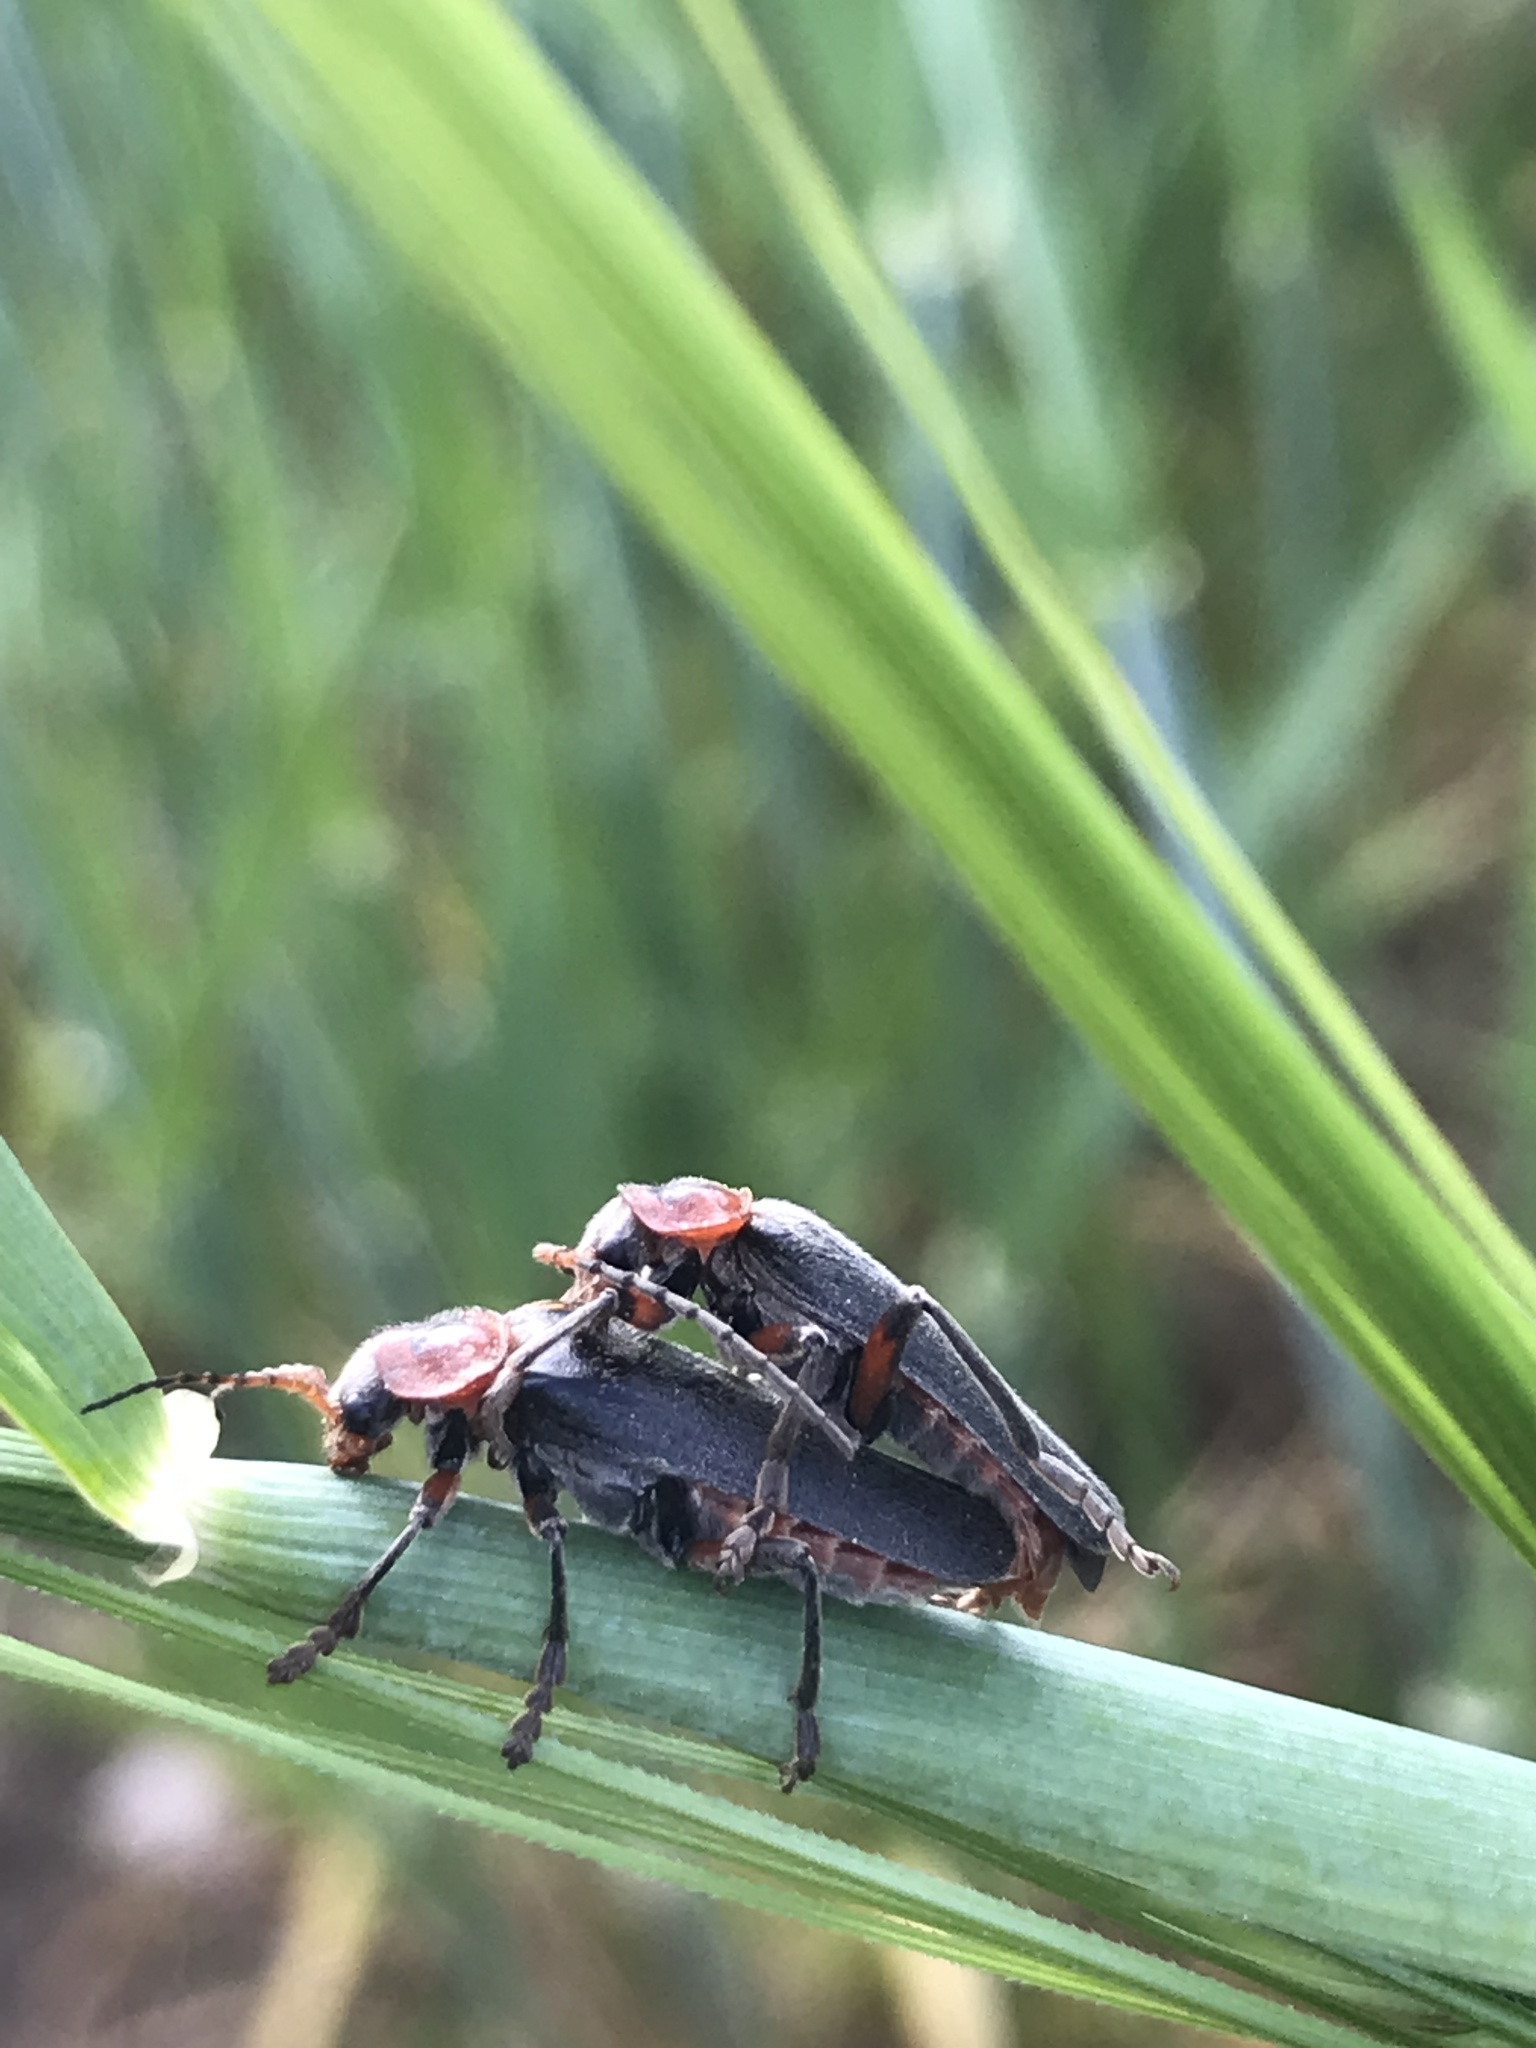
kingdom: Animalia
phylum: Arthropoda
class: Insecta
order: Coleoptera
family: Cantharidae
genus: Cantharis
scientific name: Cantharis rustica
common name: Soldier beetle
